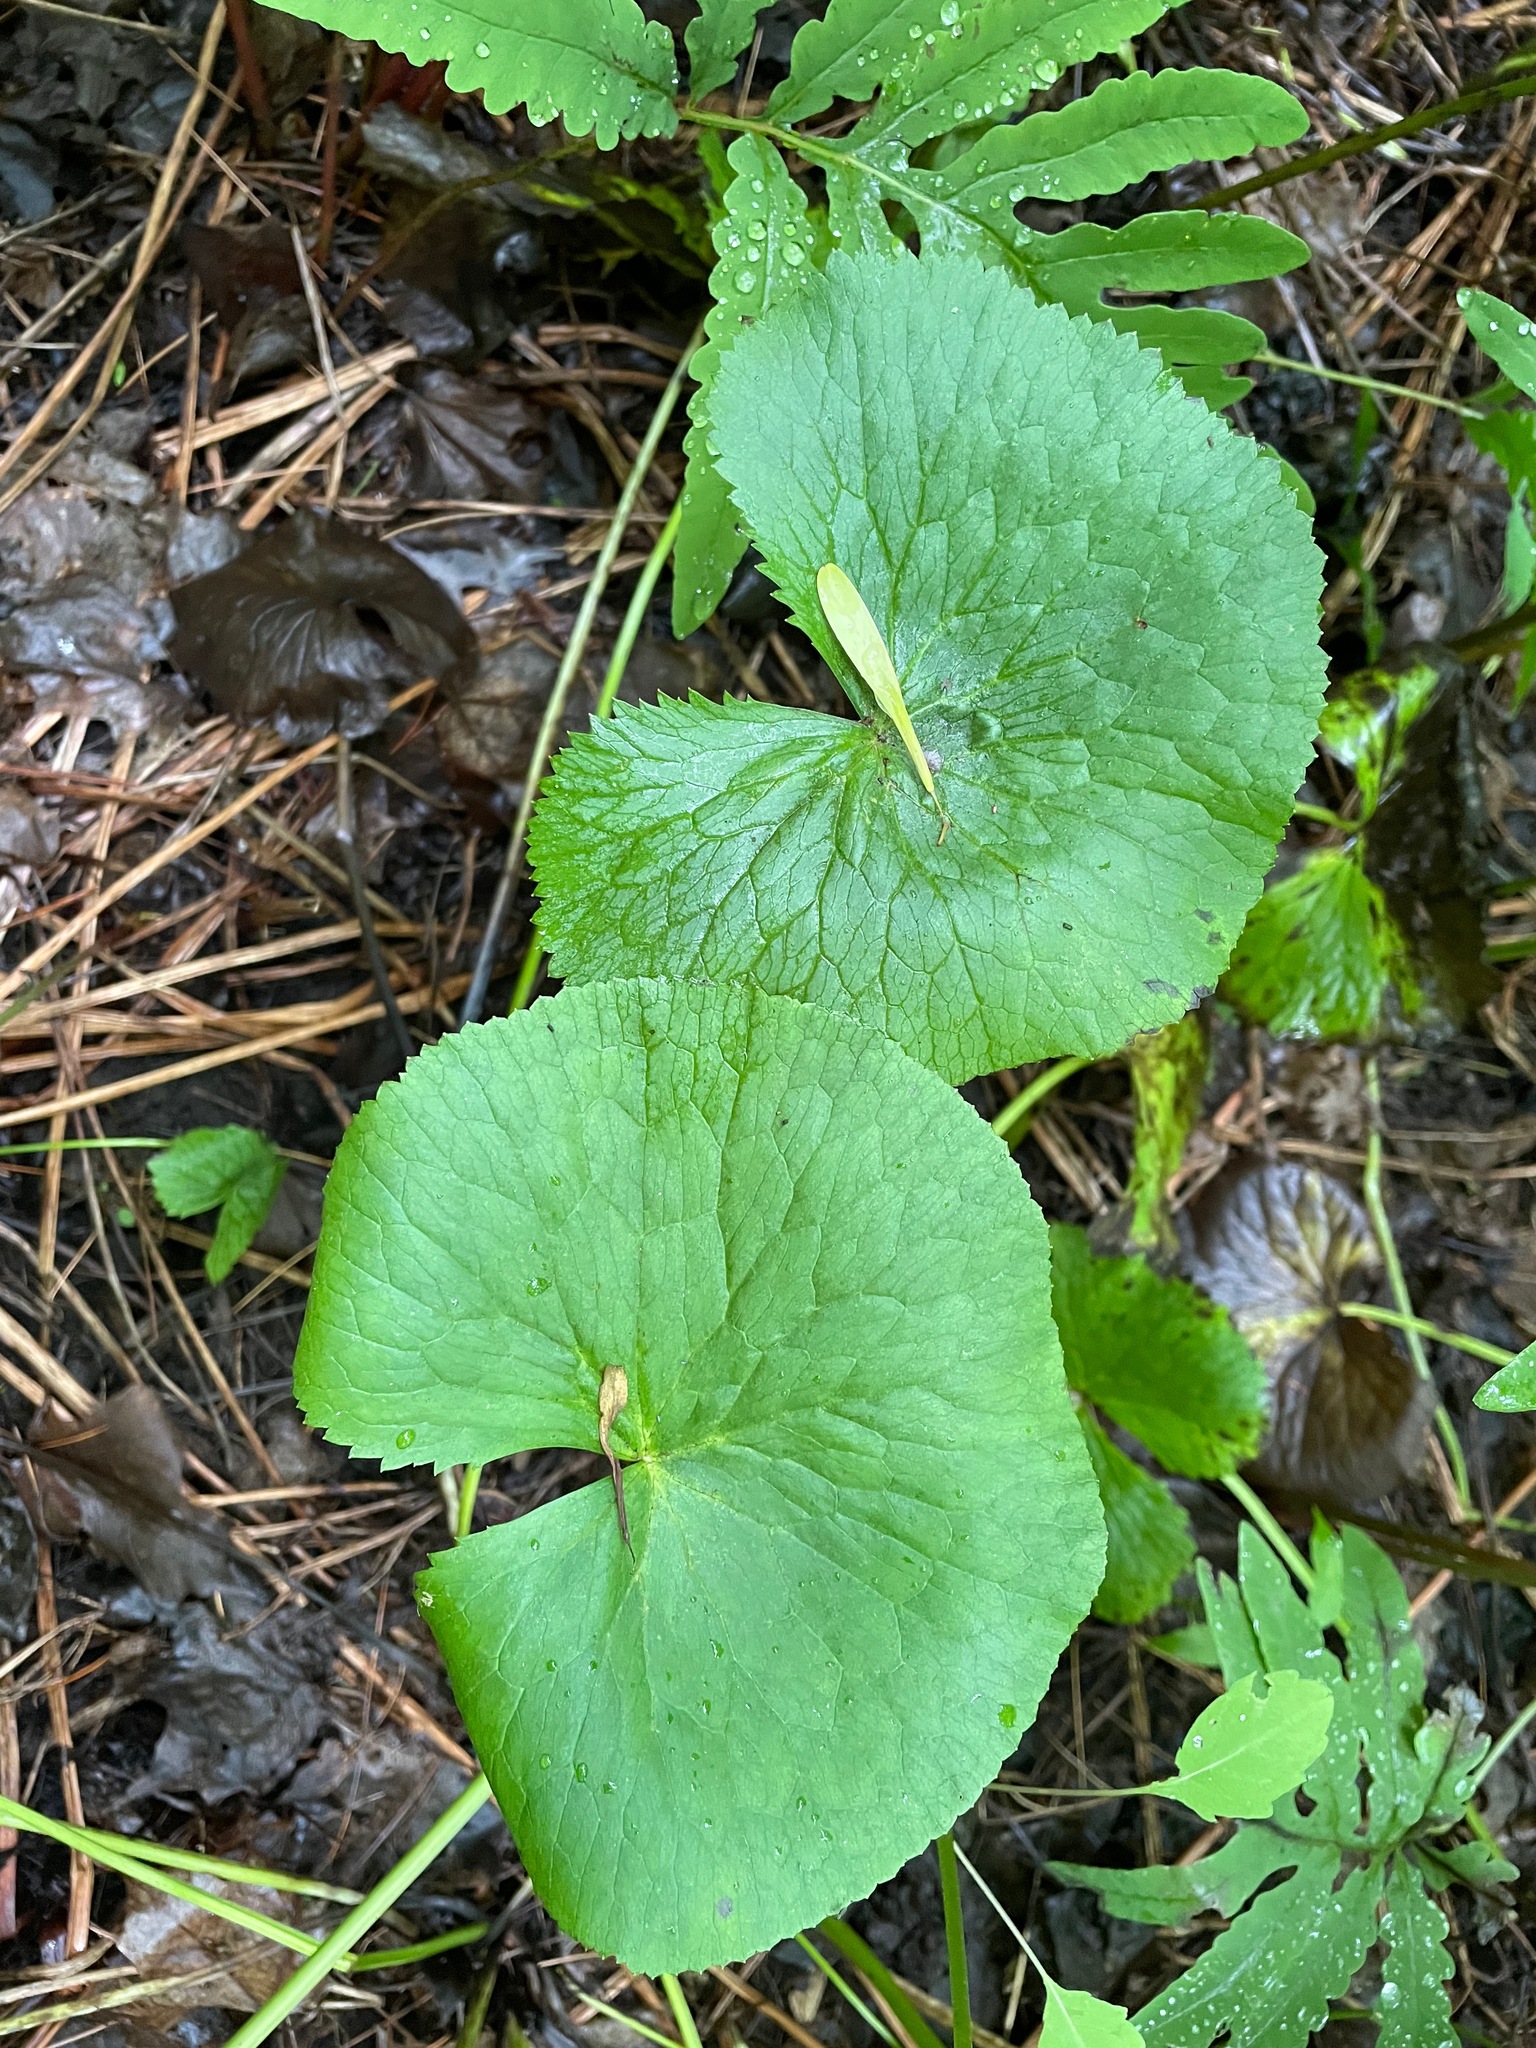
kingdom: Plantae
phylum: Tracheophyta
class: Magnoliopsida
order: Ranunculales
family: Ranunculaceae
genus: Caltha
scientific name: Caltha palustris
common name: Marsh marigold
